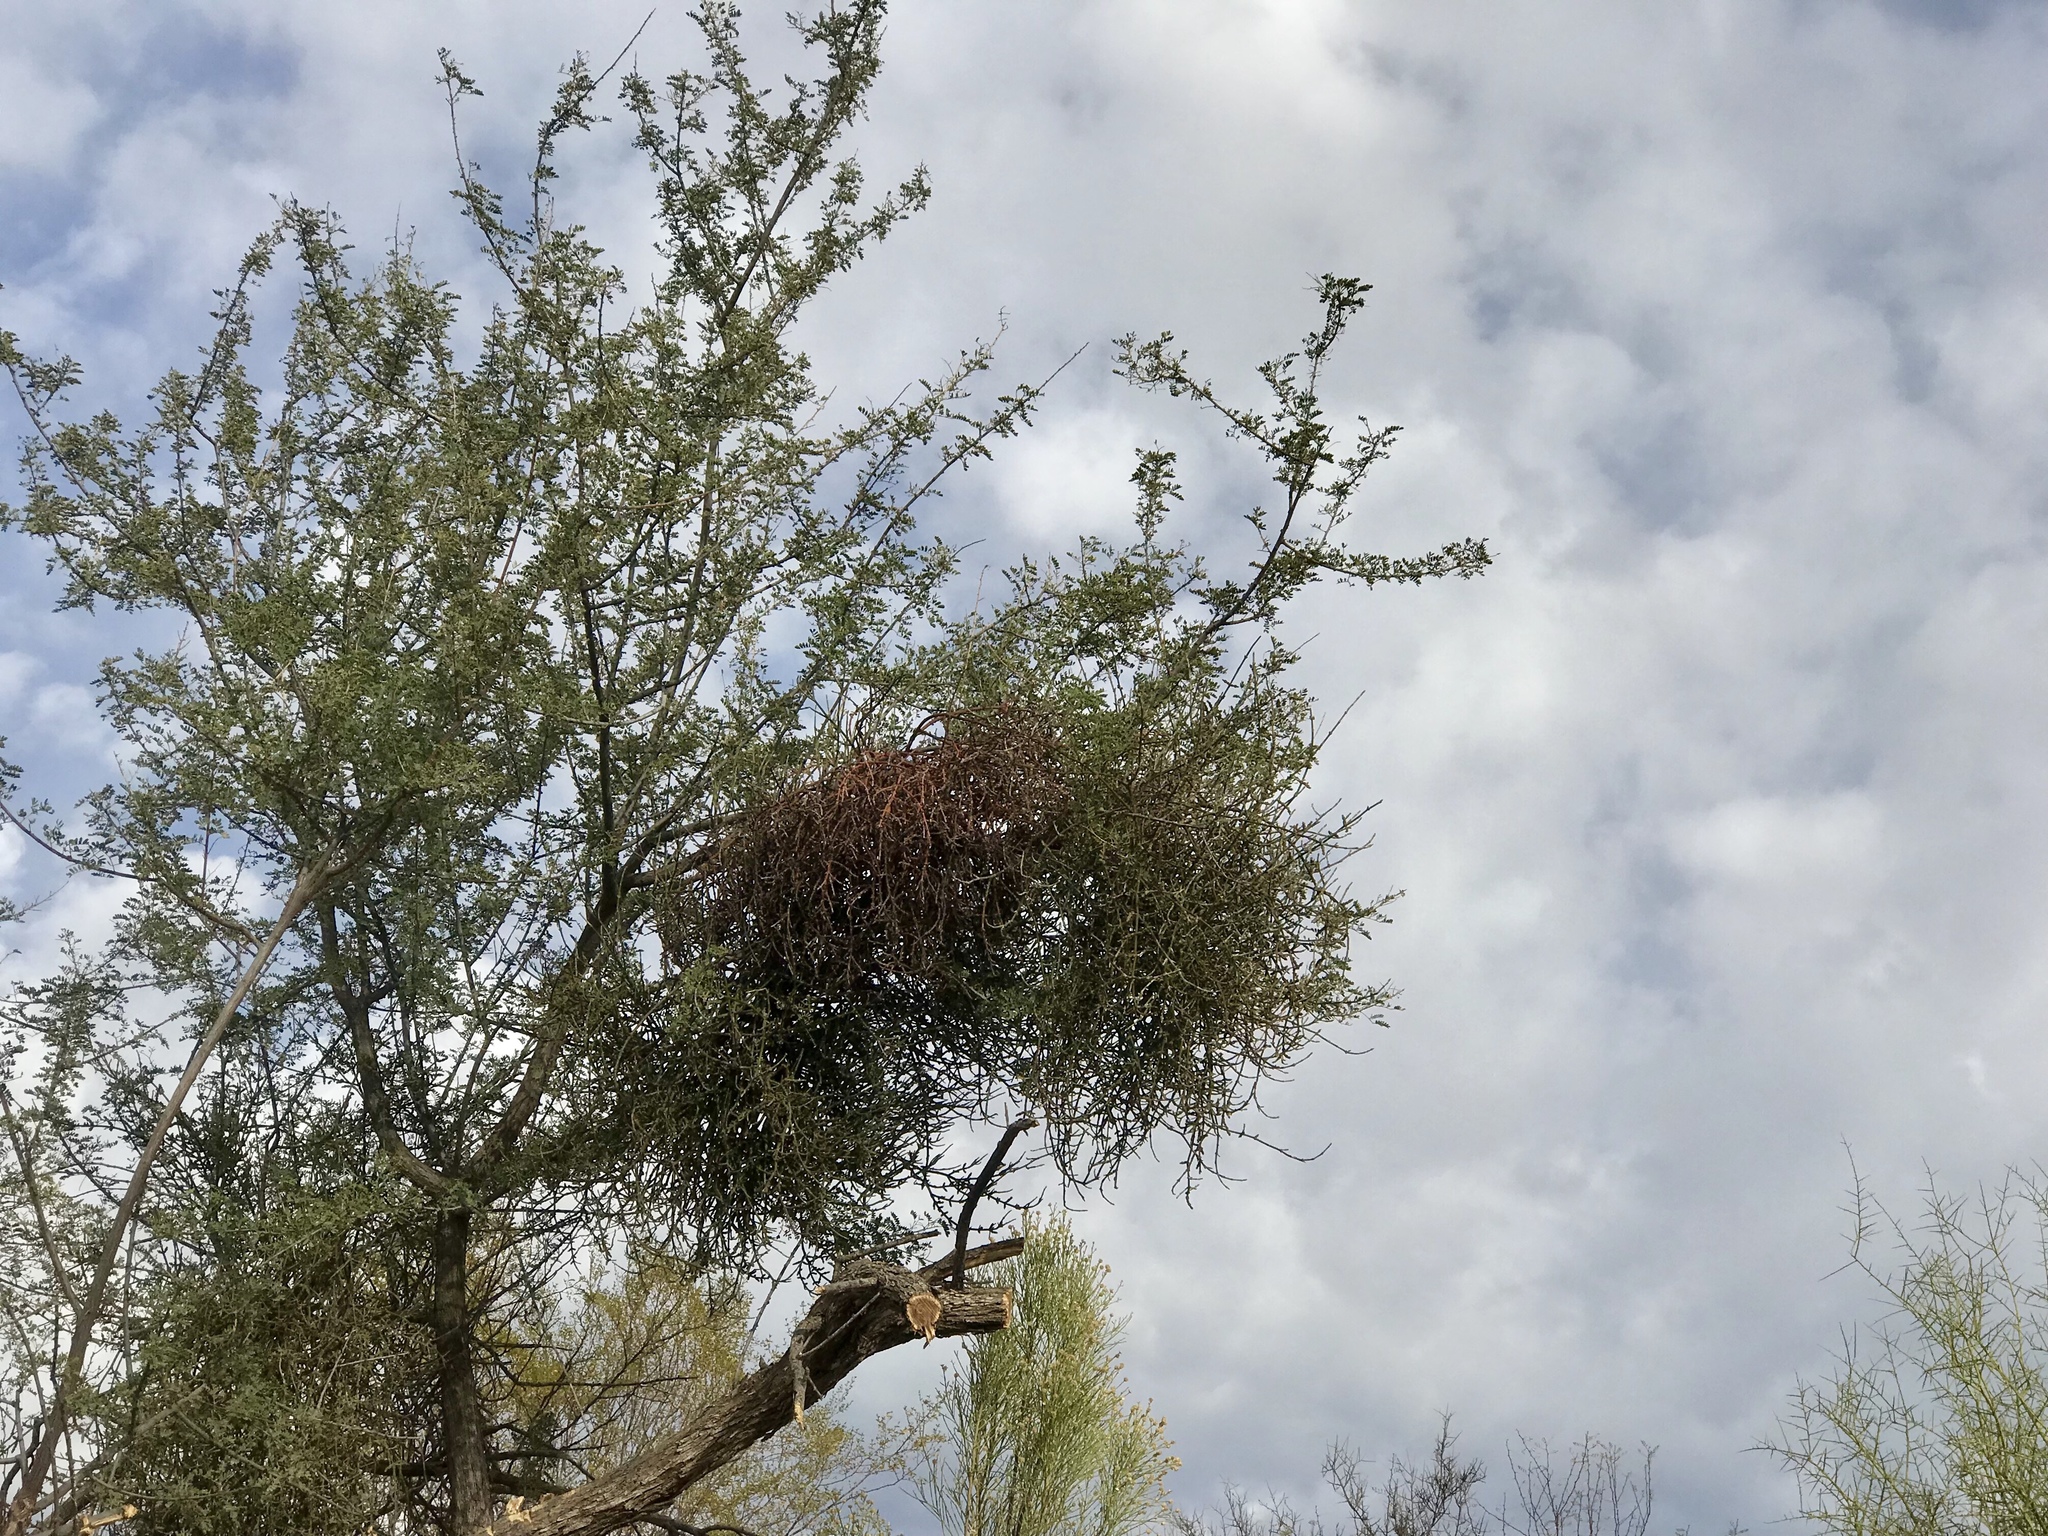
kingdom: Plantae
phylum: Tracheophyta
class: Magnoliopsida
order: Santalales
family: Viscaceae
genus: Phoradendron
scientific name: Phoradendron californicum
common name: Acacia mistletoe
